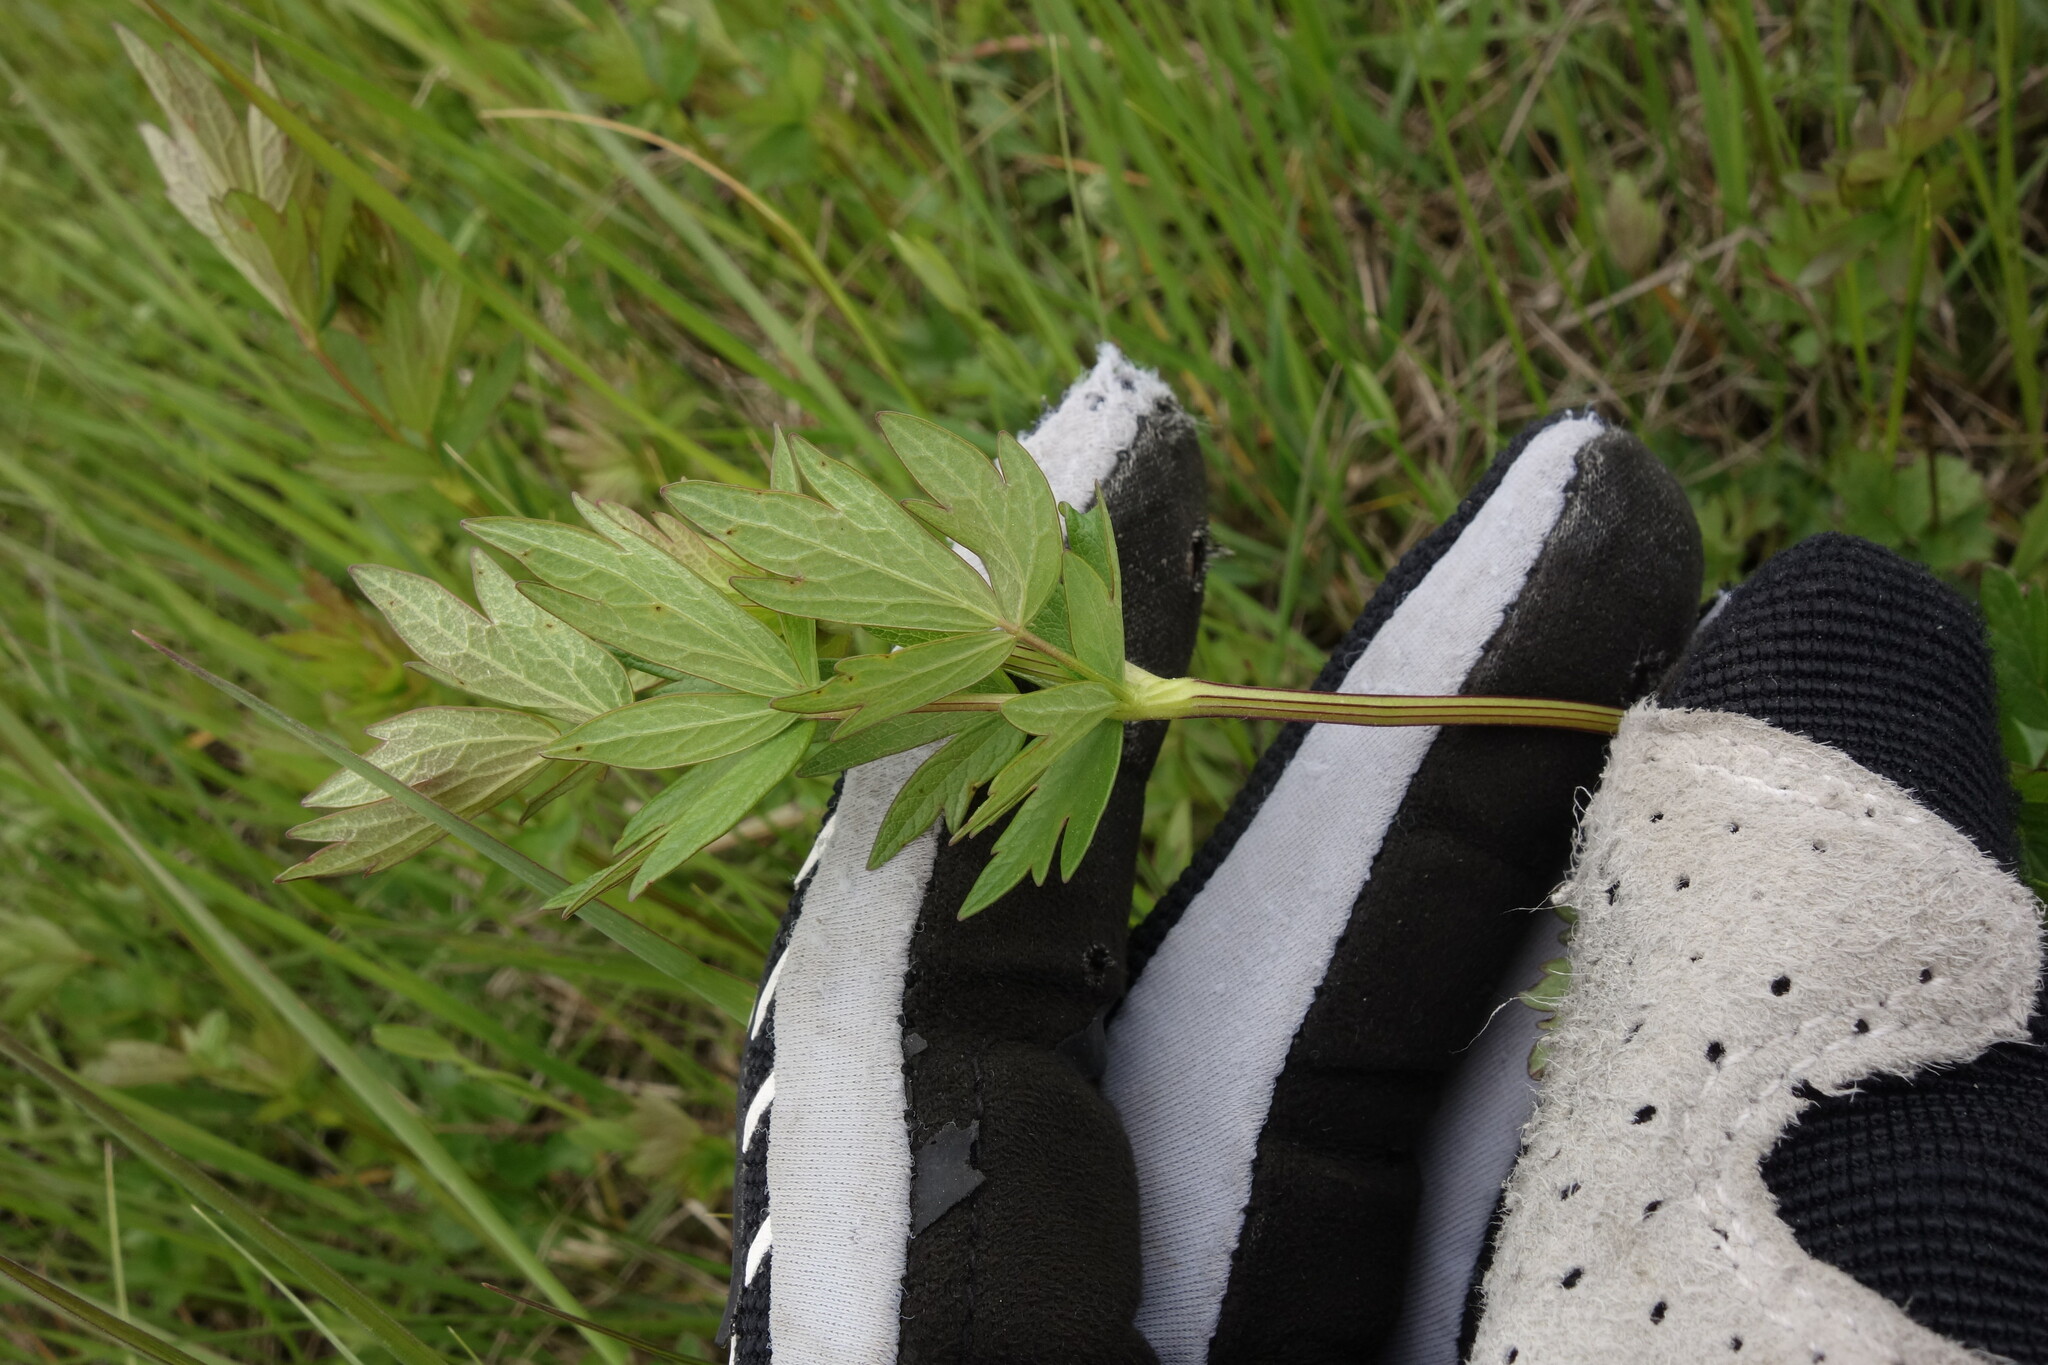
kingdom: Plantae
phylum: Tracheophyta
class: Magnoliopsida
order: Ranunculales
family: Ranunculaceae
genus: Thalictrum
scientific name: Thalictrum simplex
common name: Small meadow-rue
